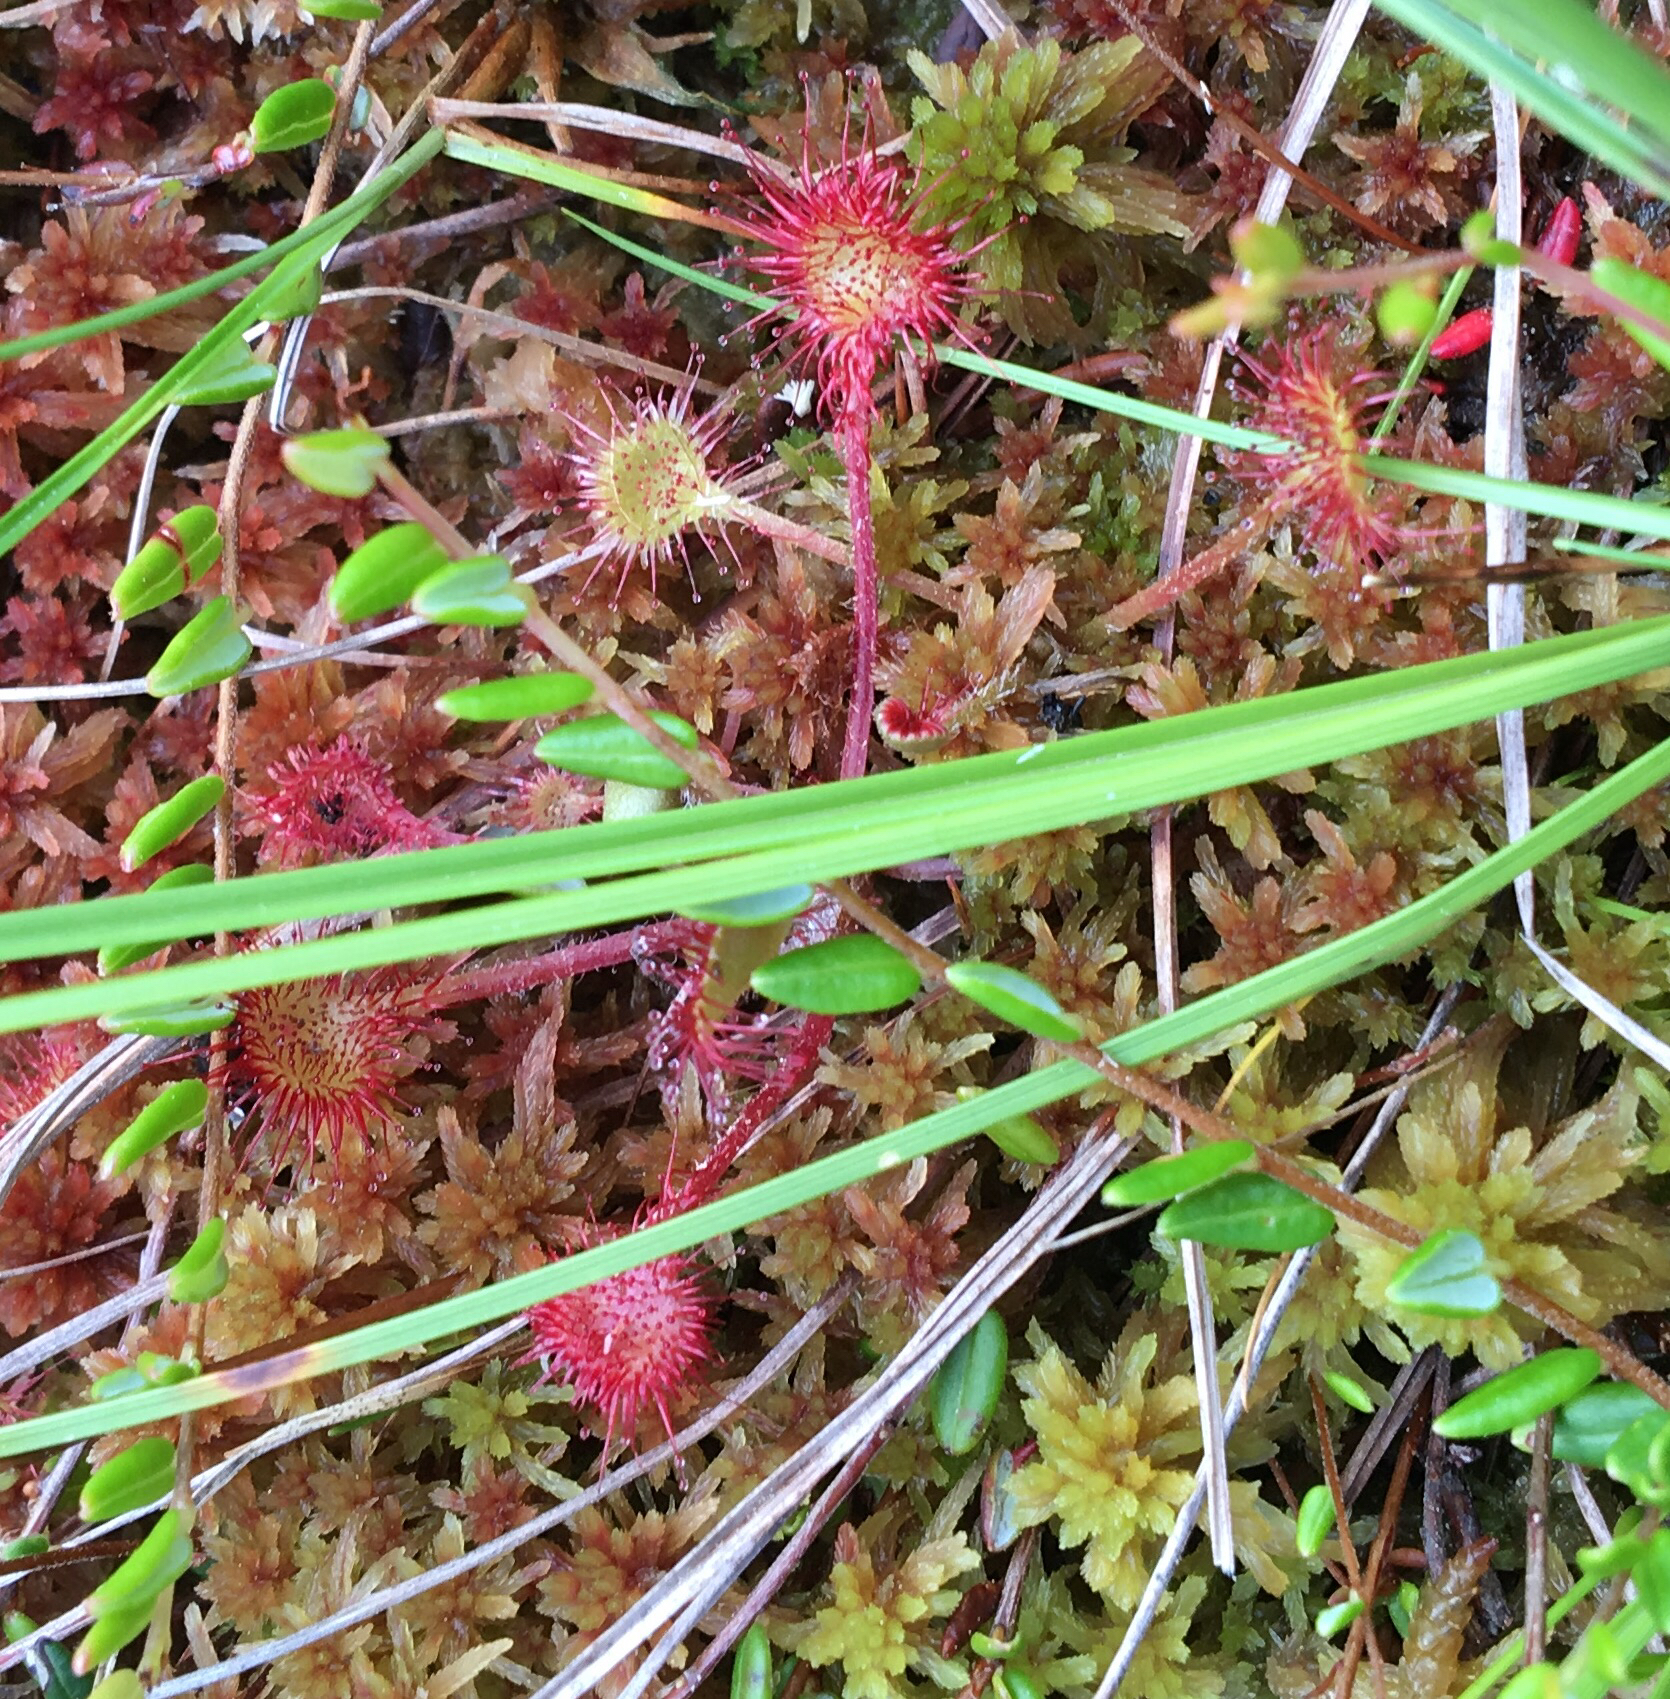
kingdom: Plantae
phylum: Tracheophyta
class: Magnoliopsida
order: Caryophyllales
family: Droseraceae
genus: Drosera
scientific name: Drosera rotundifolia
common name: Round-leaved sundew
